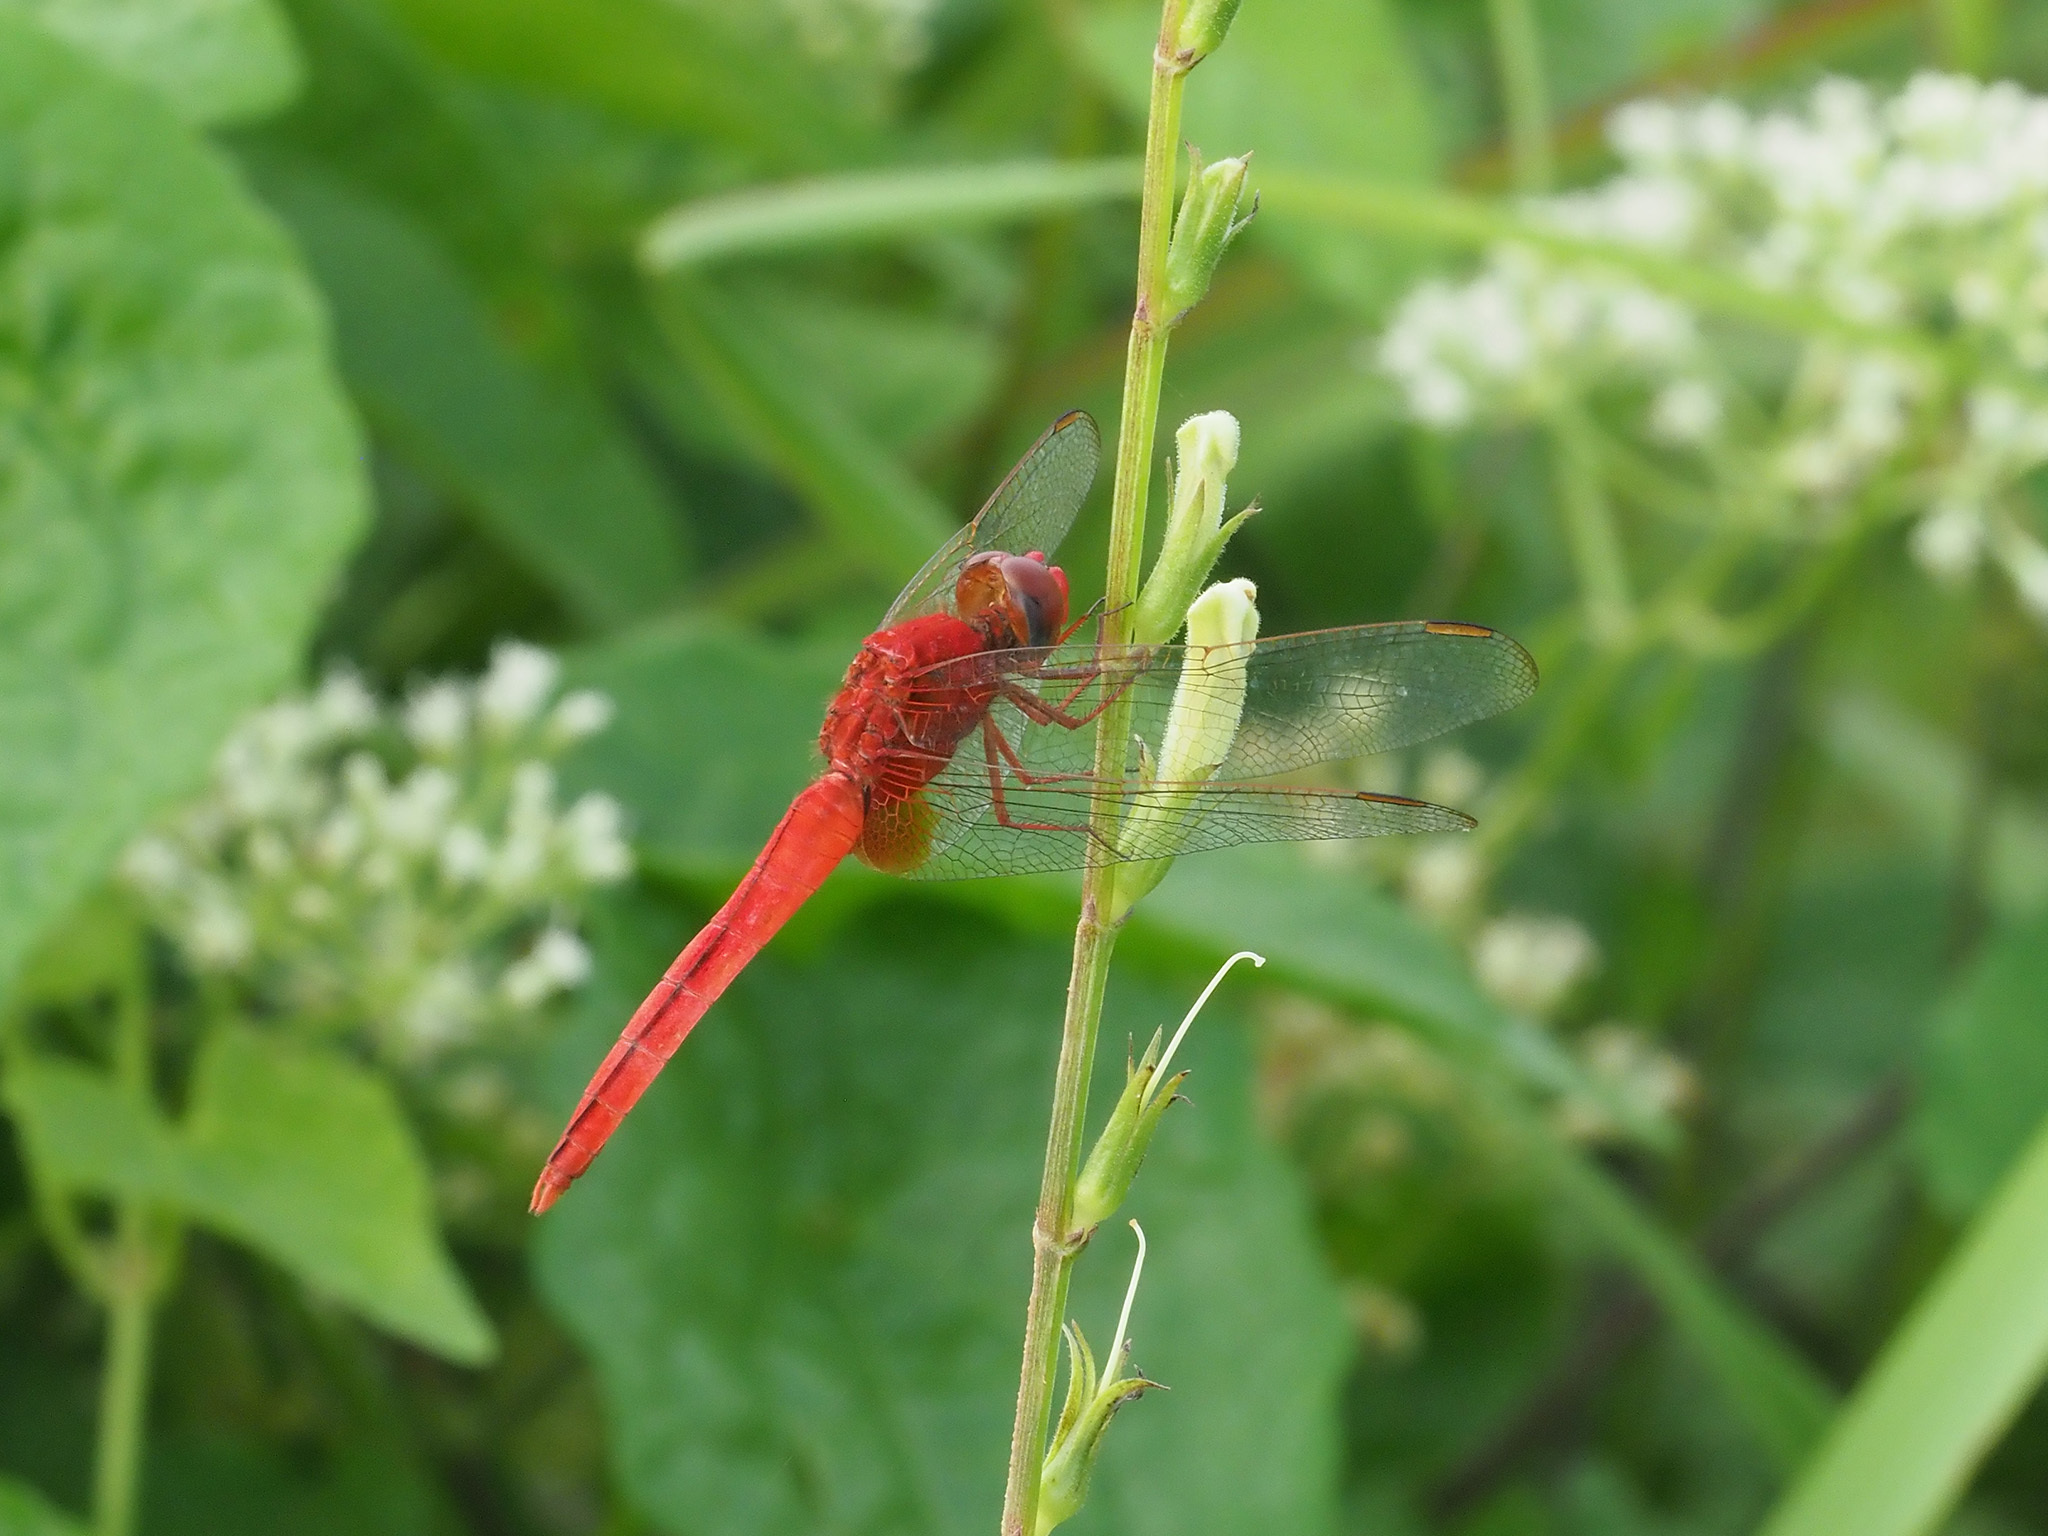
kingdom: Animalia
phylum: Arthropoda
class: Insecta
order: Odonata
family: Libellulidae
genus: Crocothemis
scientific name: Crocothemis servilia
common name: Scarlet skimmer
